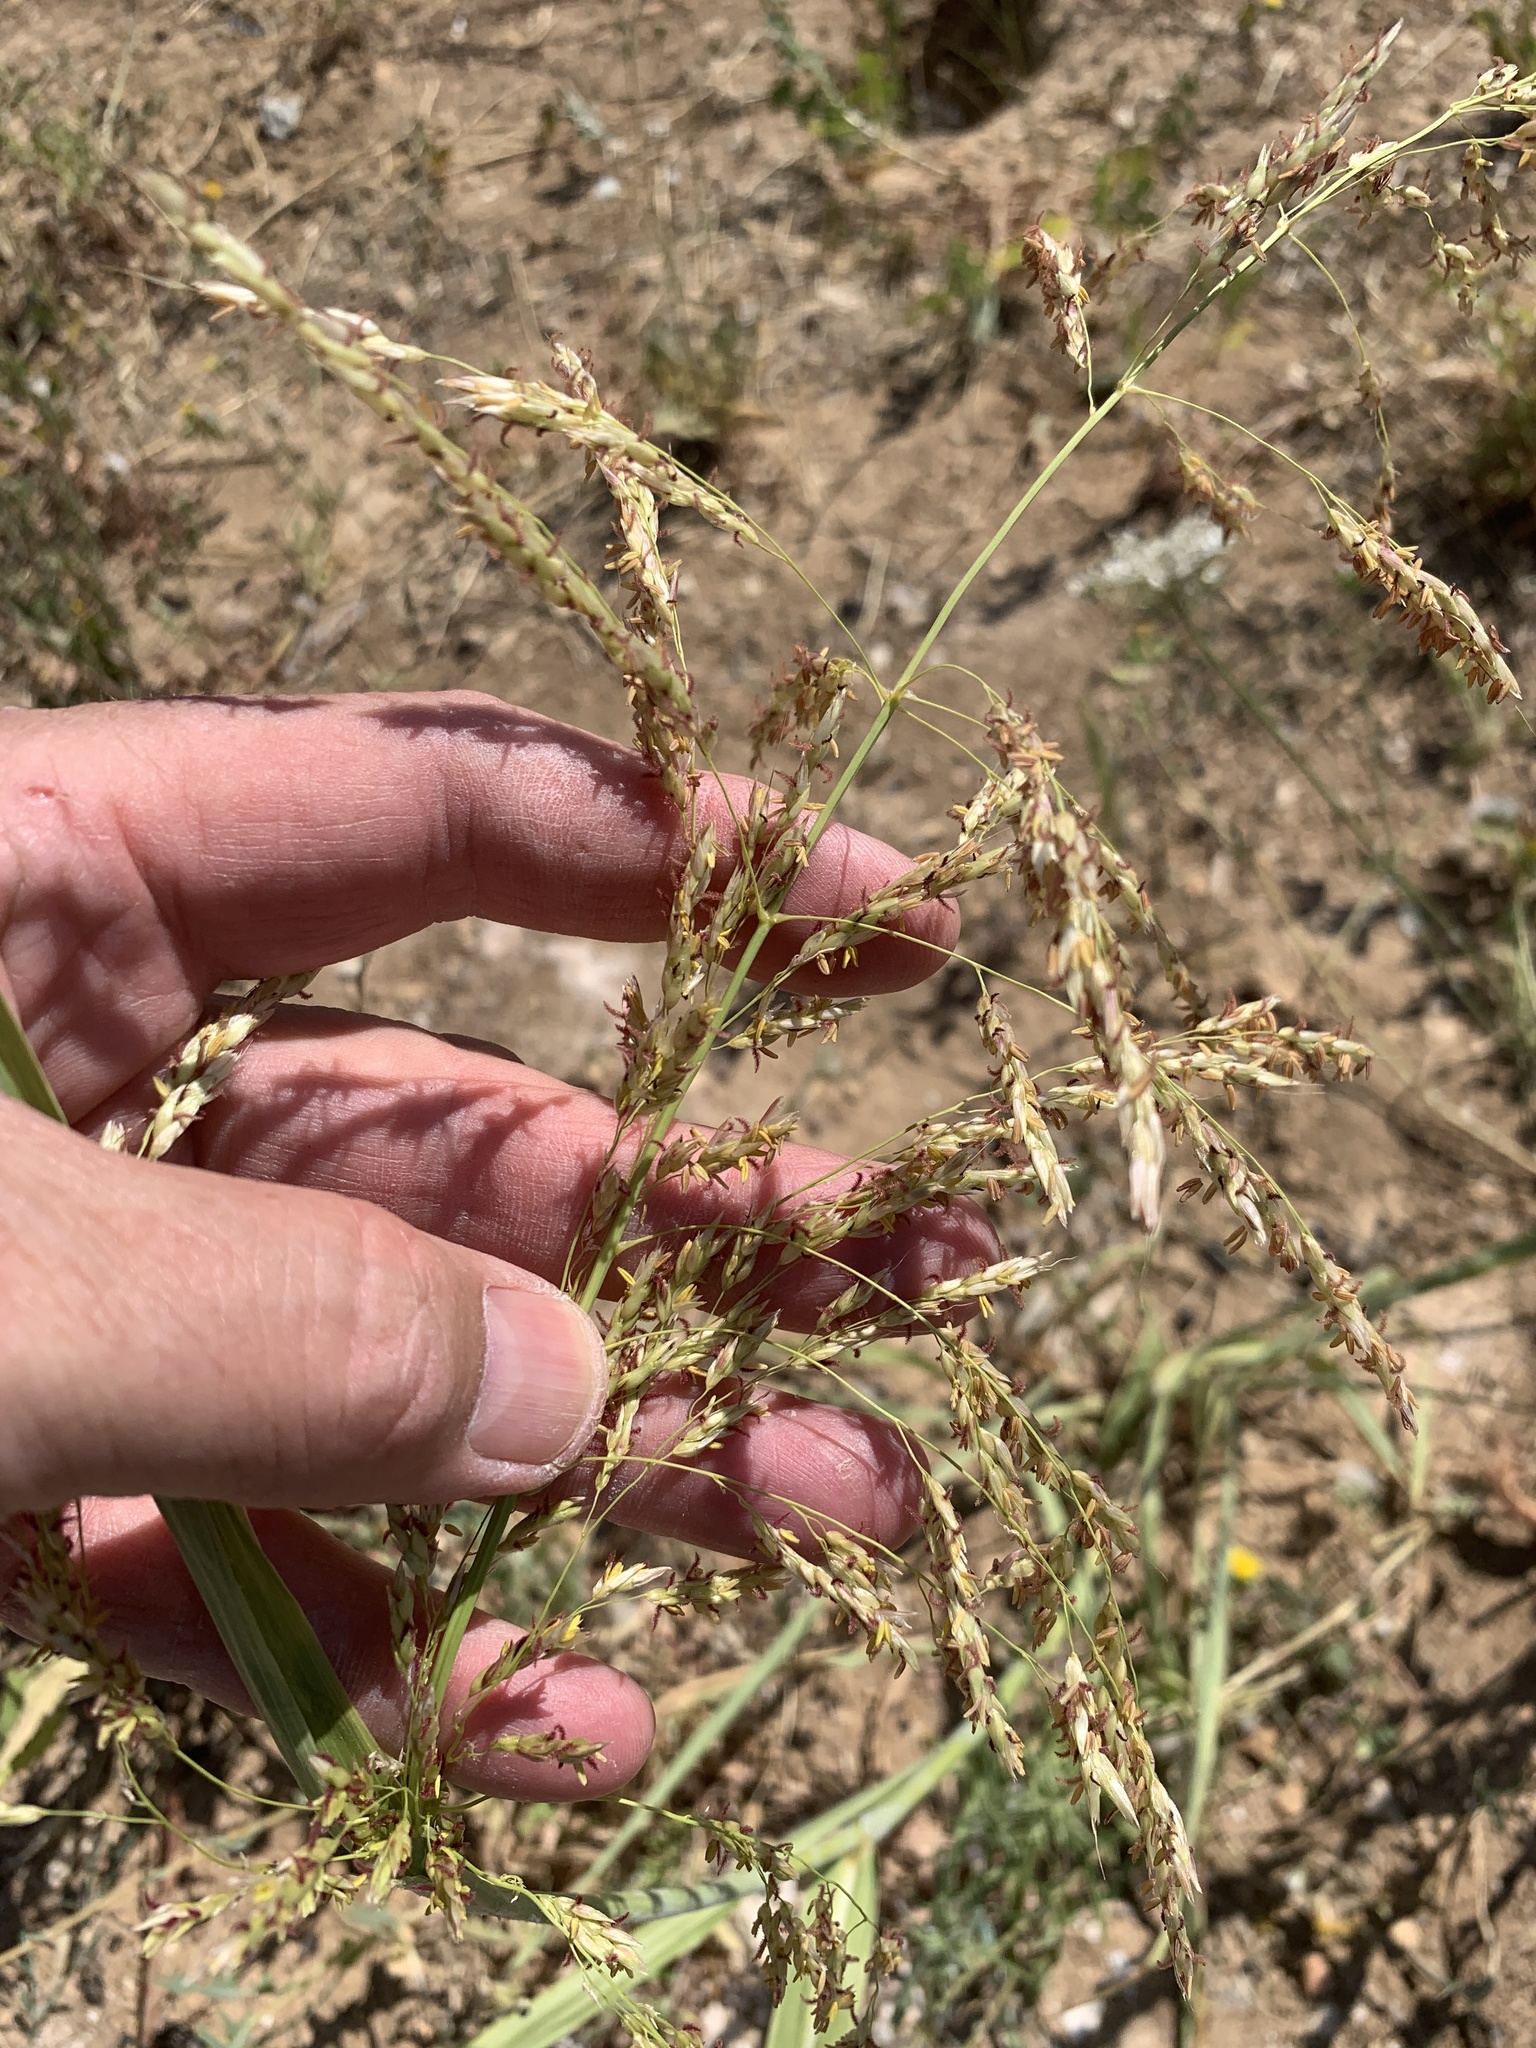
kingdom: Plantae
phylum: Tracheophyta
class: Liliopsida
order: Poales
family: Poaceae
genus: Sorghum
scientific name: Sorghum halepense
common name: Johnson-grass
